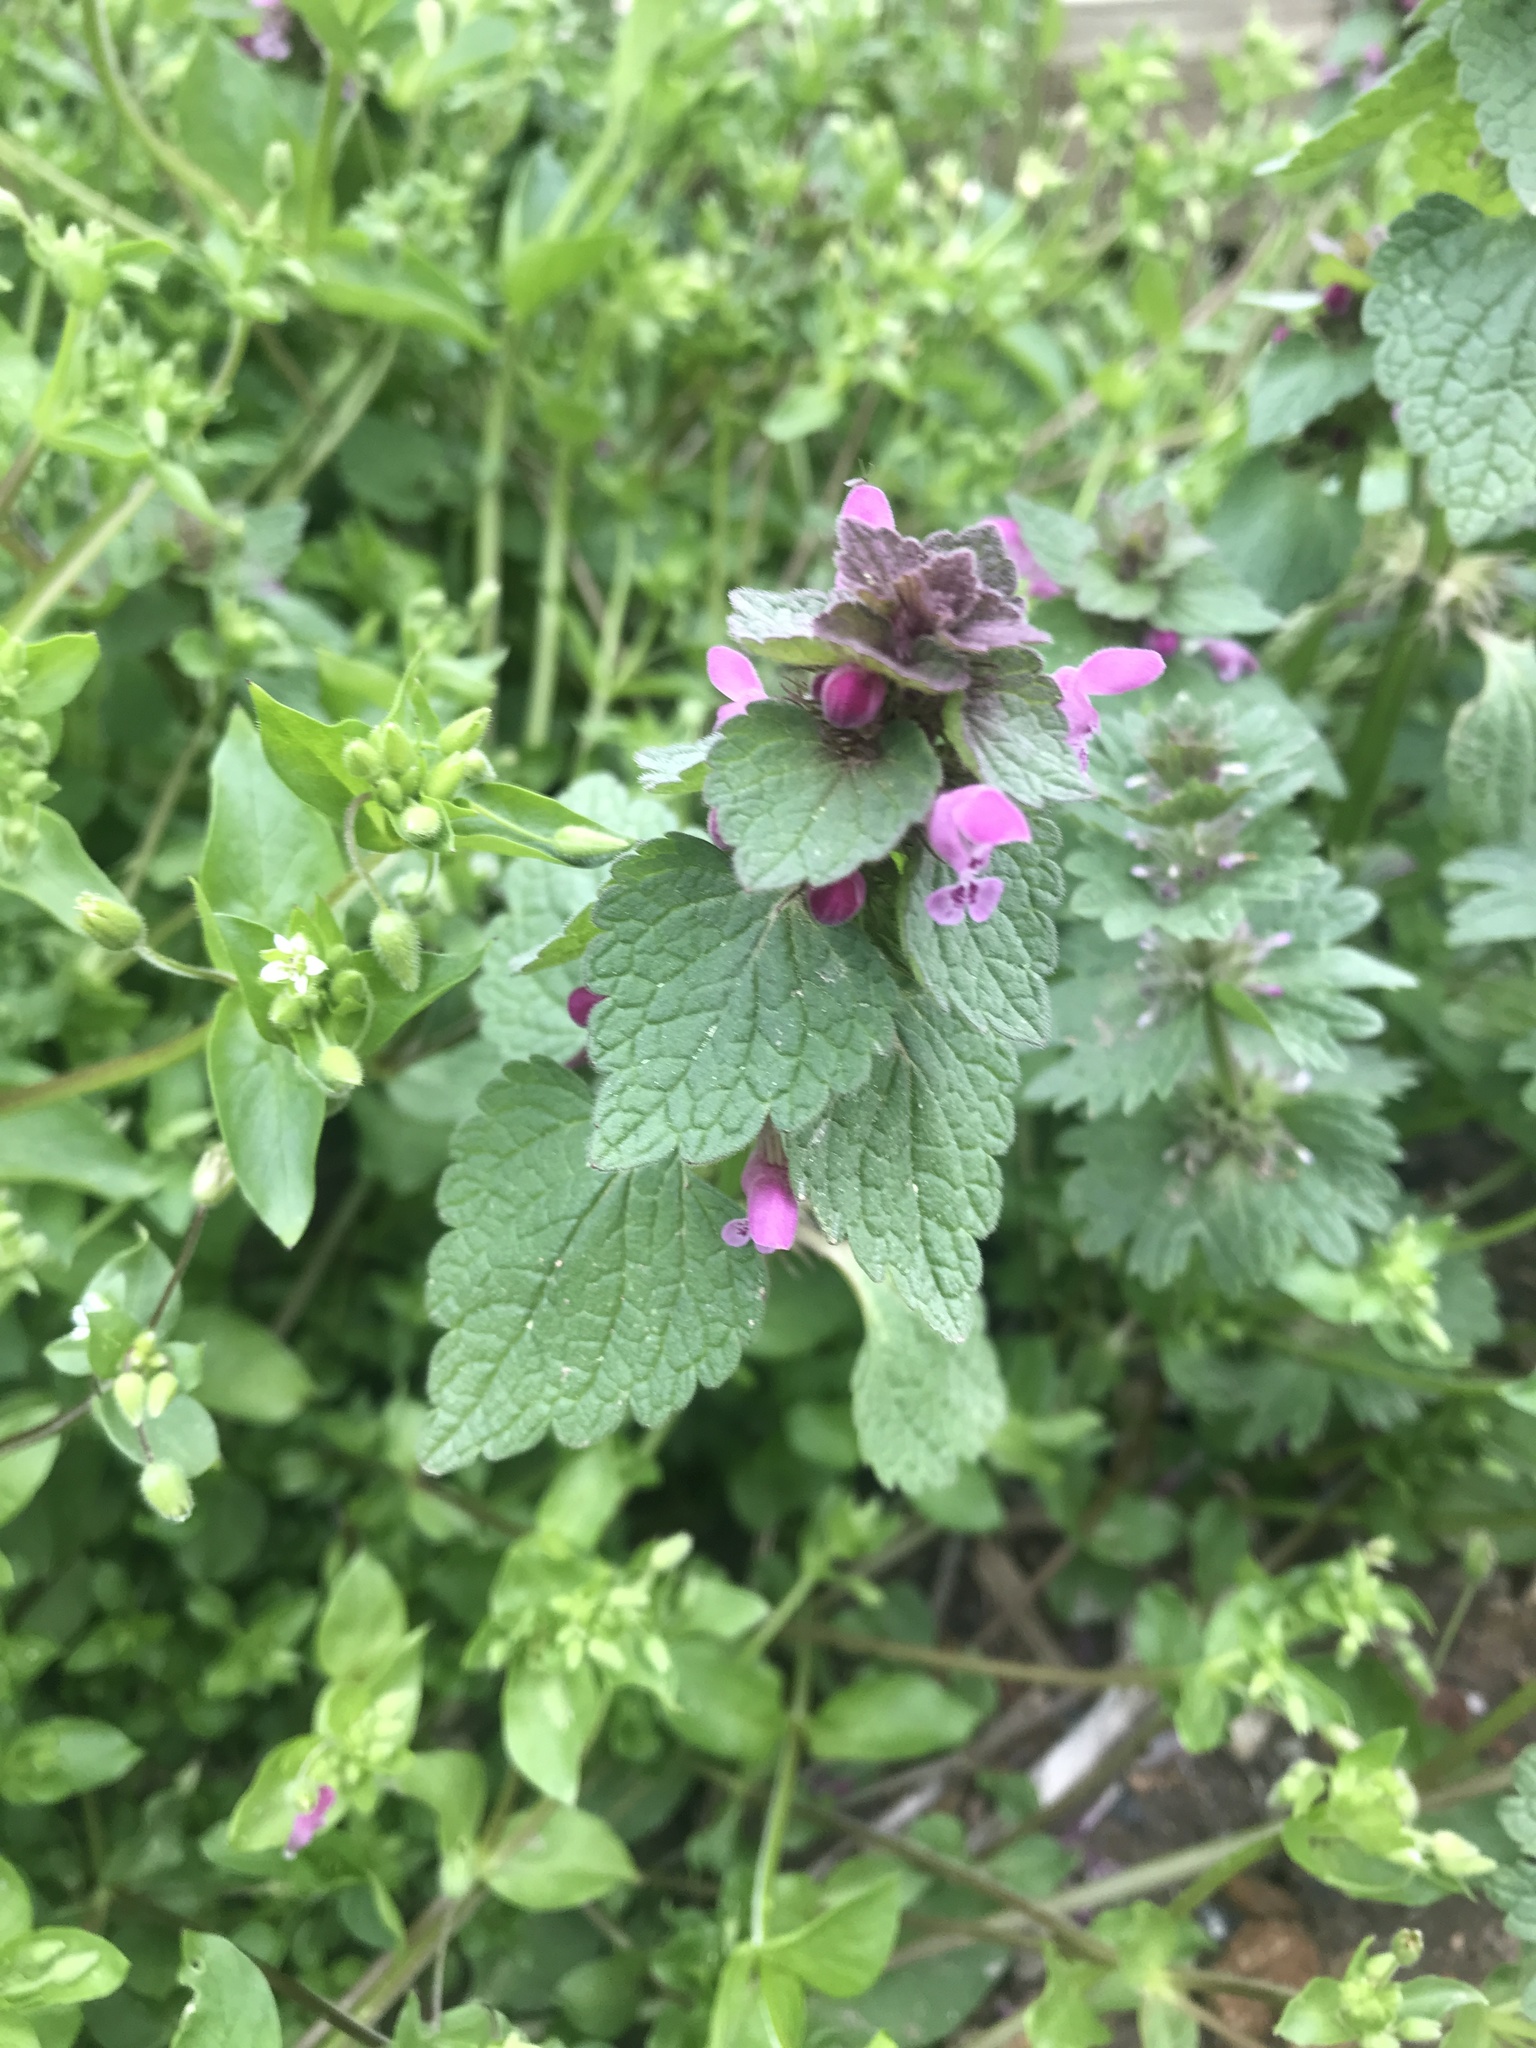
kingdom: Plantae
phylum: Tracheophyta
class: Magnoliopsida
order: Lamiales
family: Lamiaceae
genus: Lamium
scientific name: Lamium purpureum
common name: Red dead-nettle
